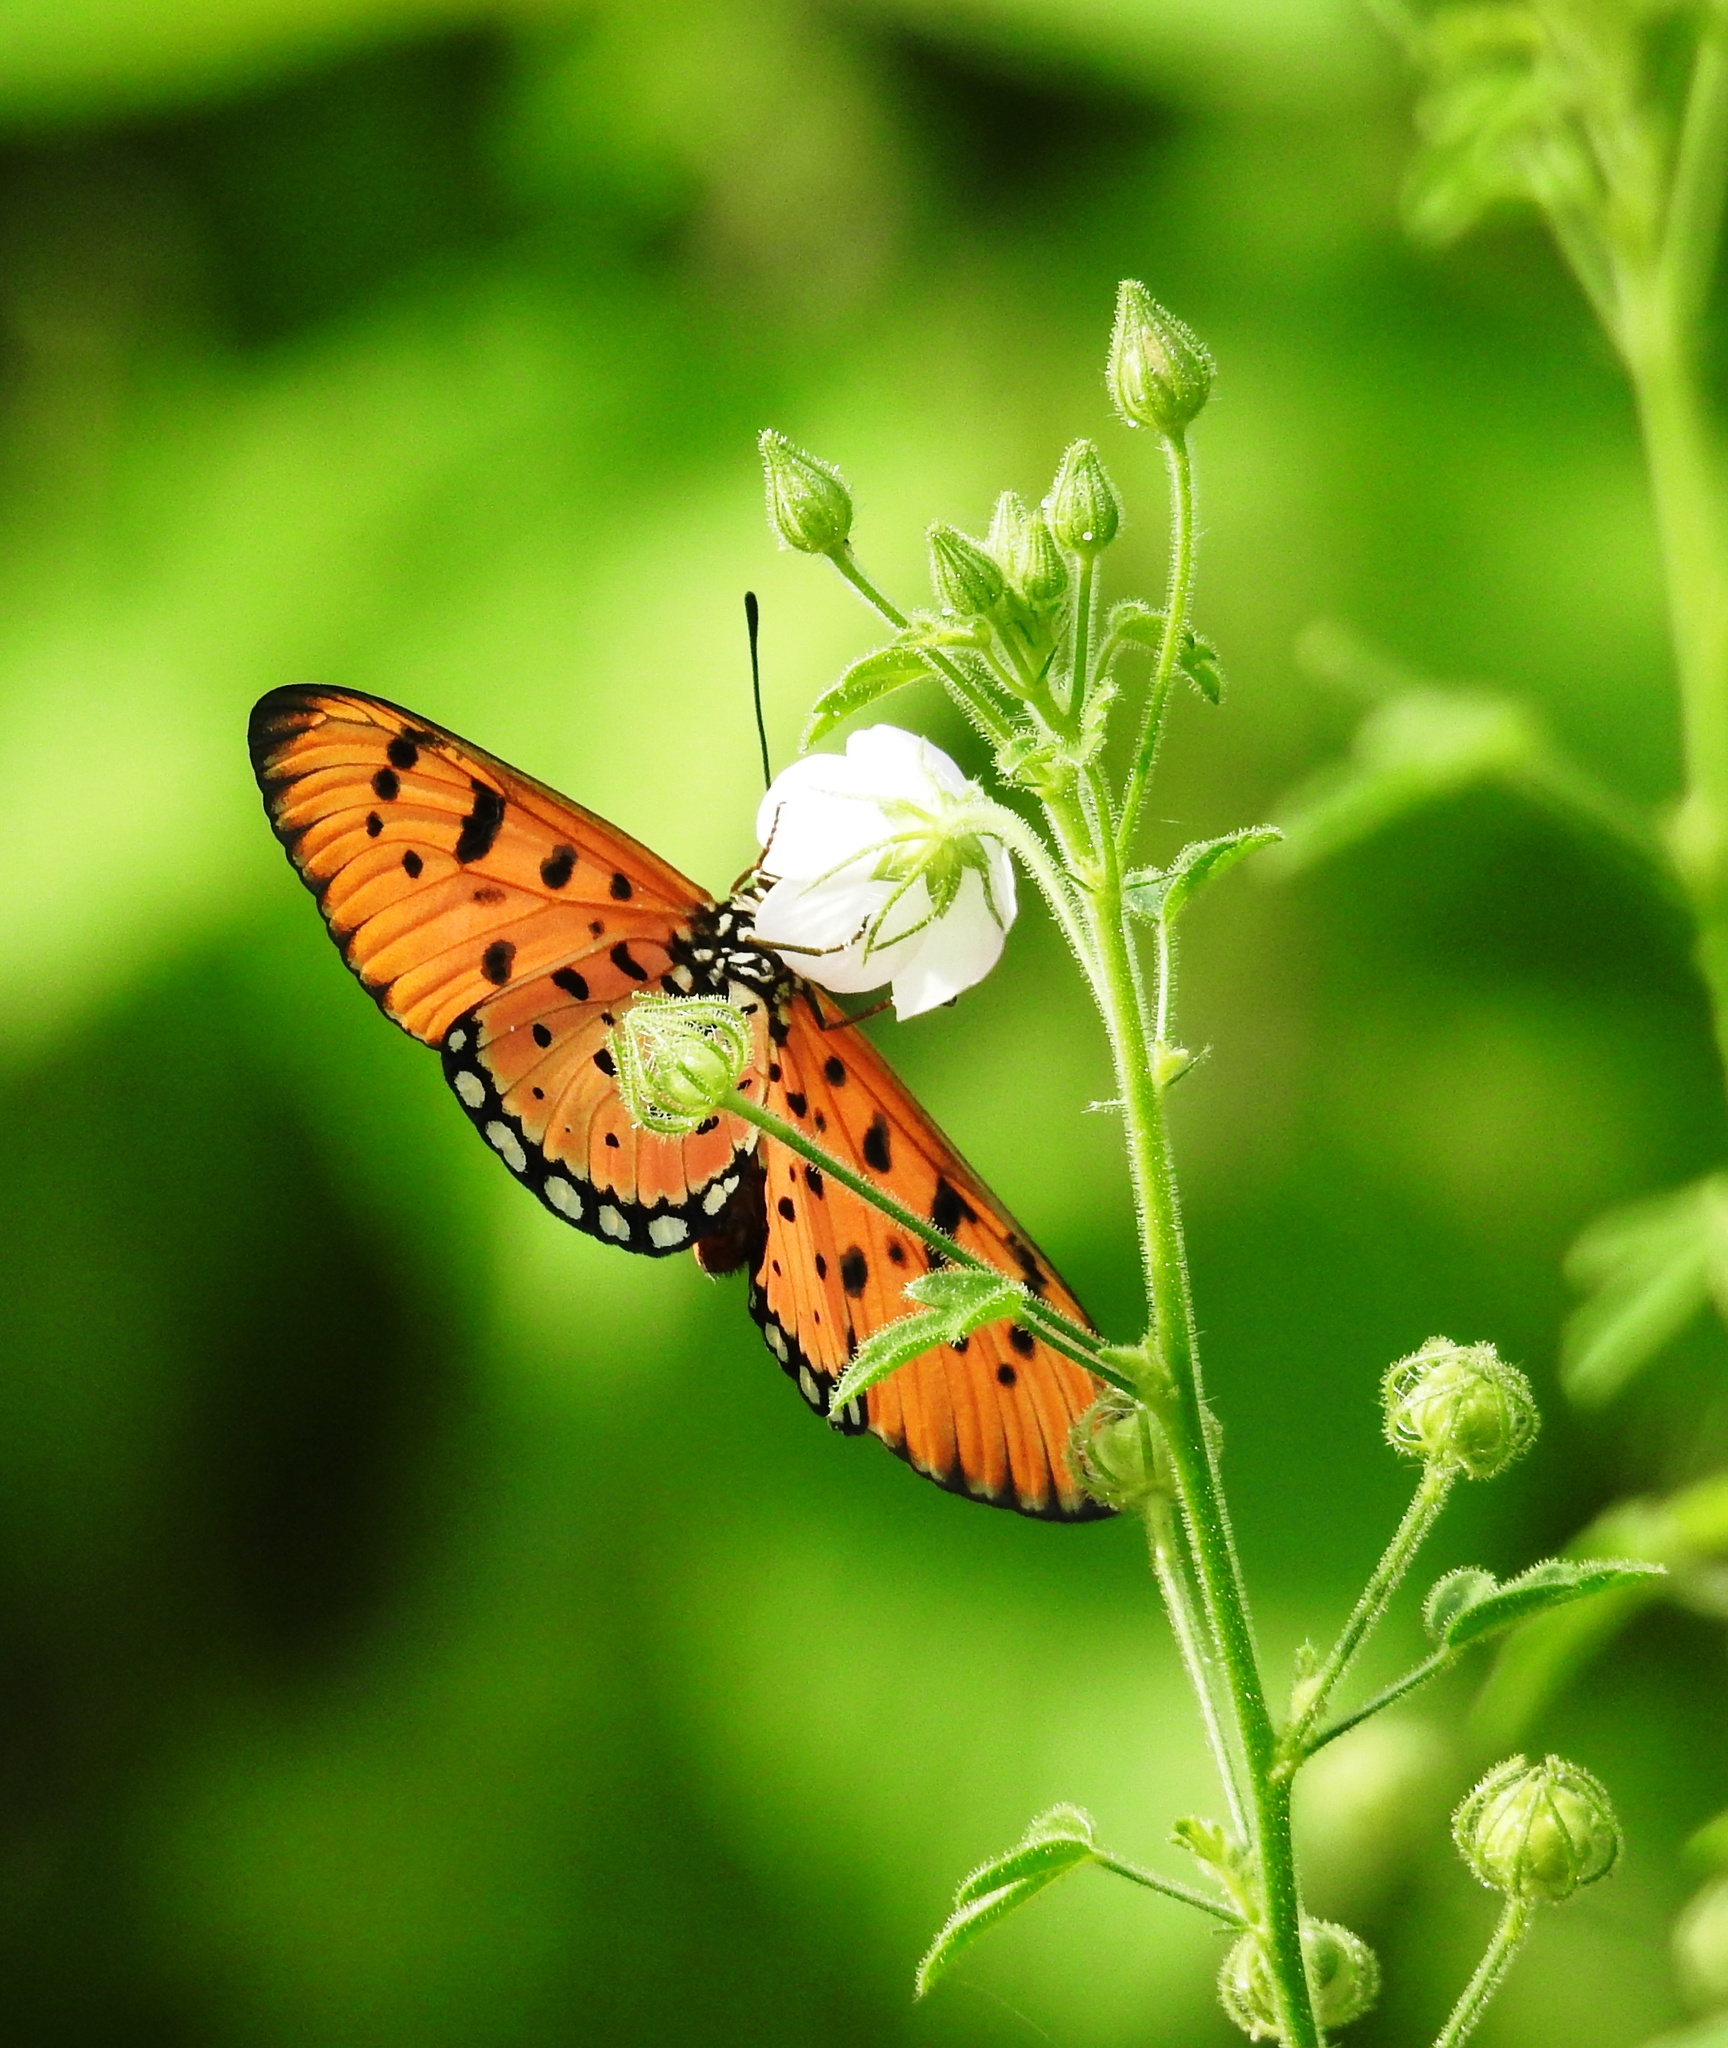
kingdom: Animalia
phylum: Arthropoda
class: Insecta
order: Lepidoptera
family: Nymphalidae
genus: Acraea
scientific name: Acraea terpsicore
